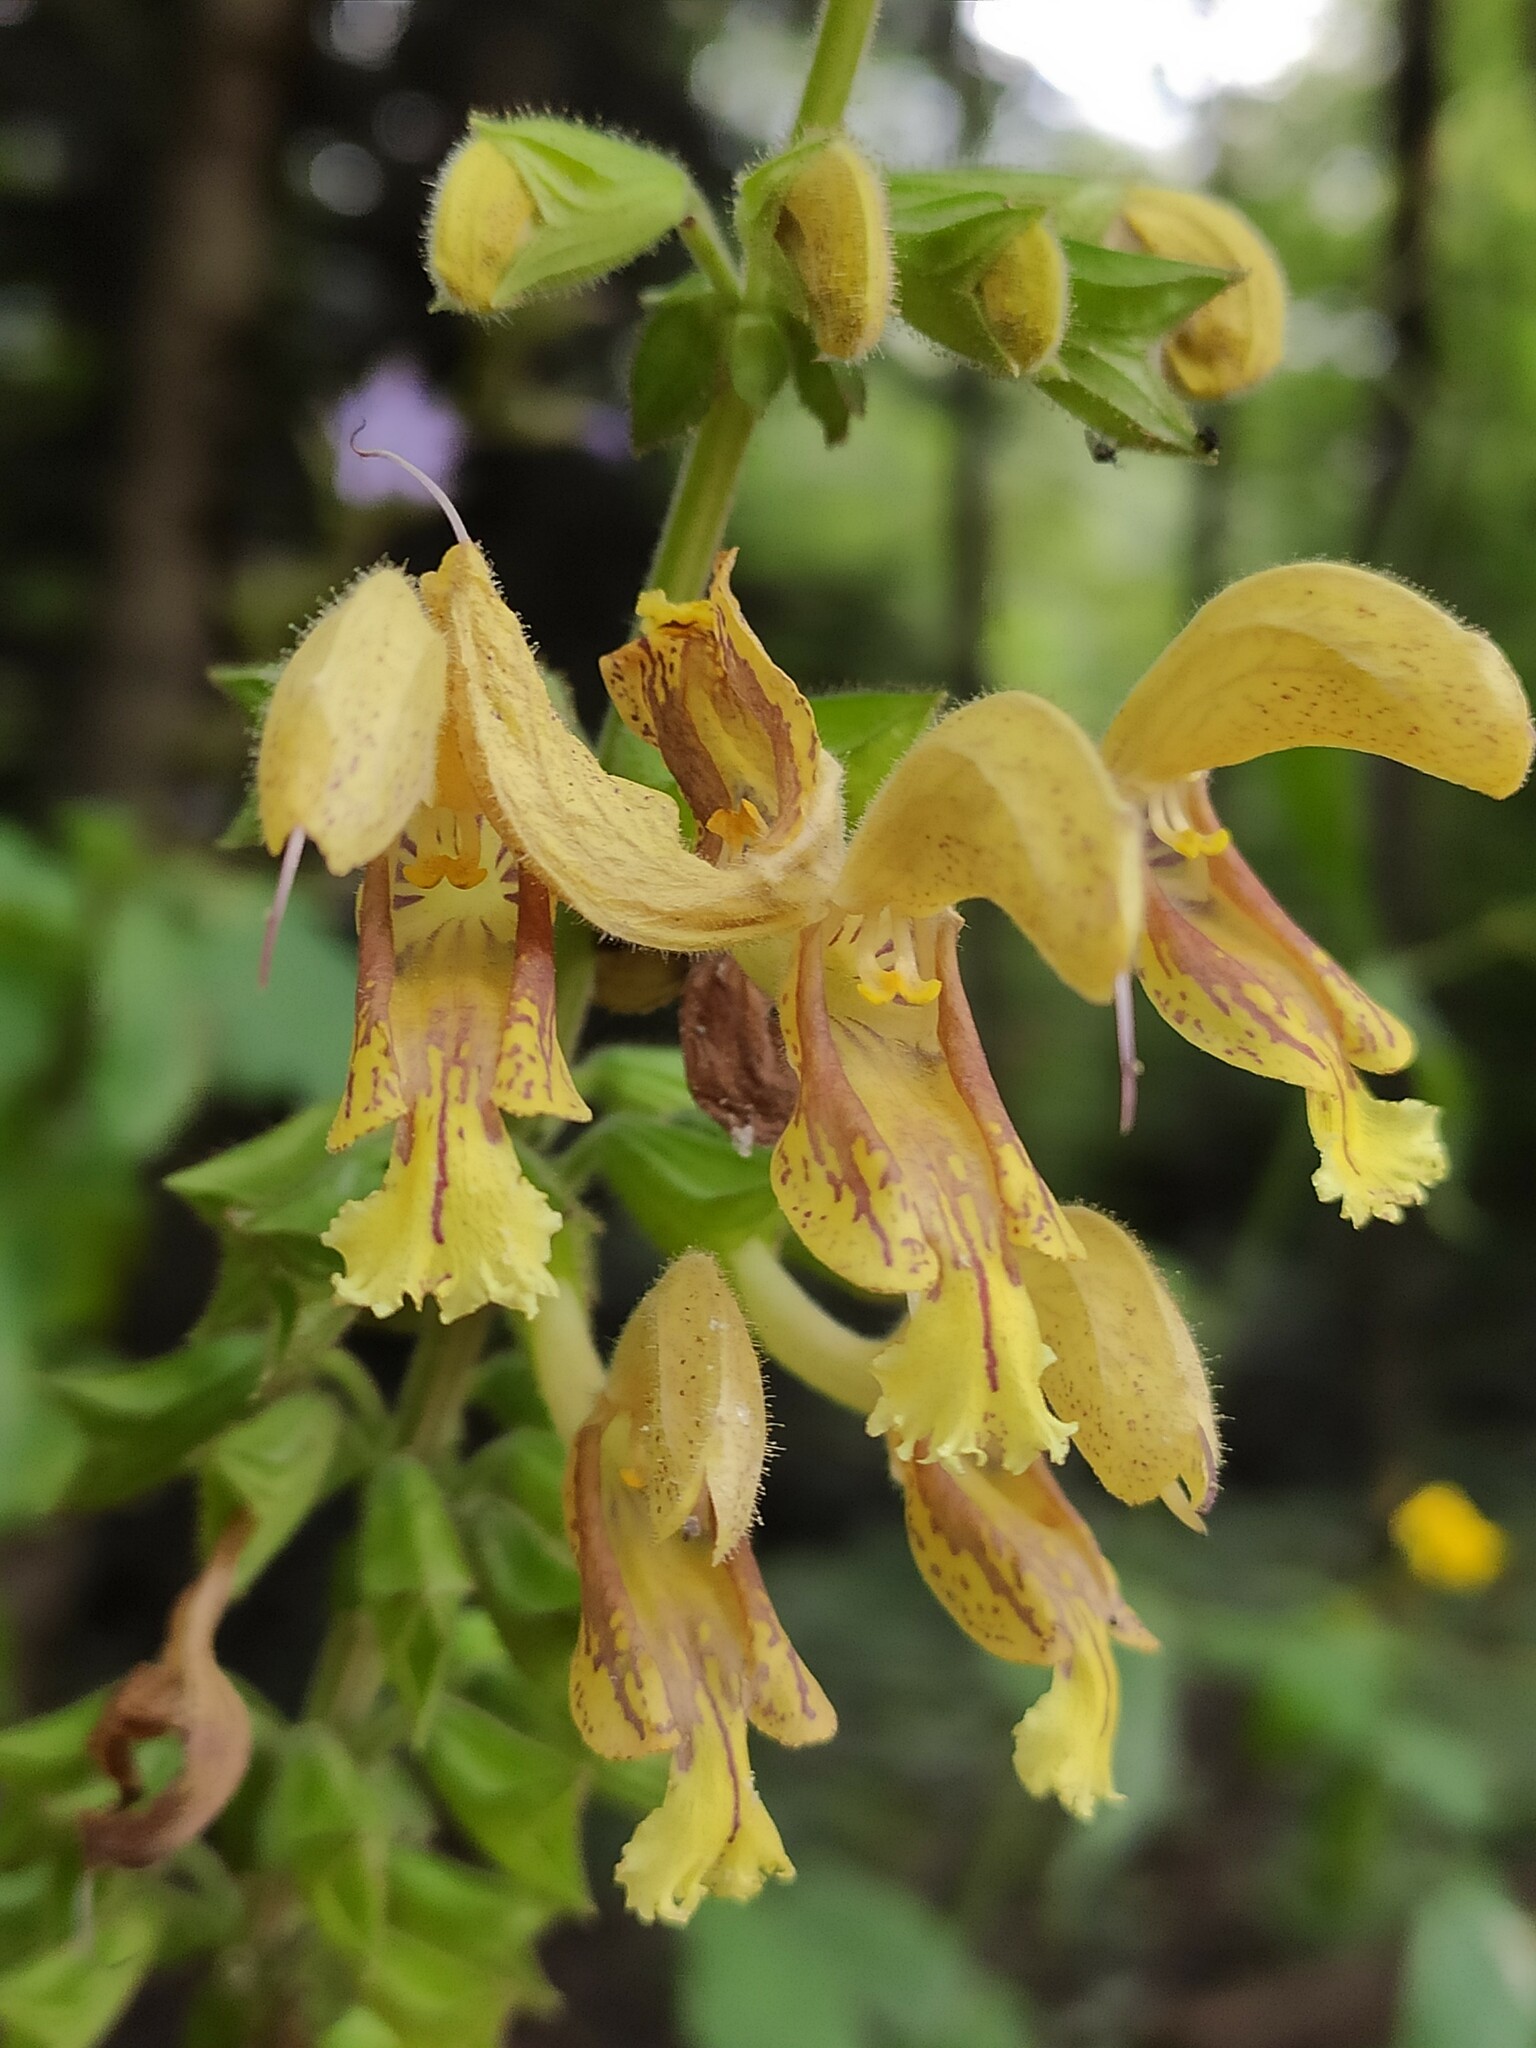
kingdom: Plantae
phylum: Tracheophyta
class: Magnoliopsida
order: Lamiales
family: Lamiaceae
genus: Salvia
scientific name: Salvia glutinosa
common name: Sticky clary
